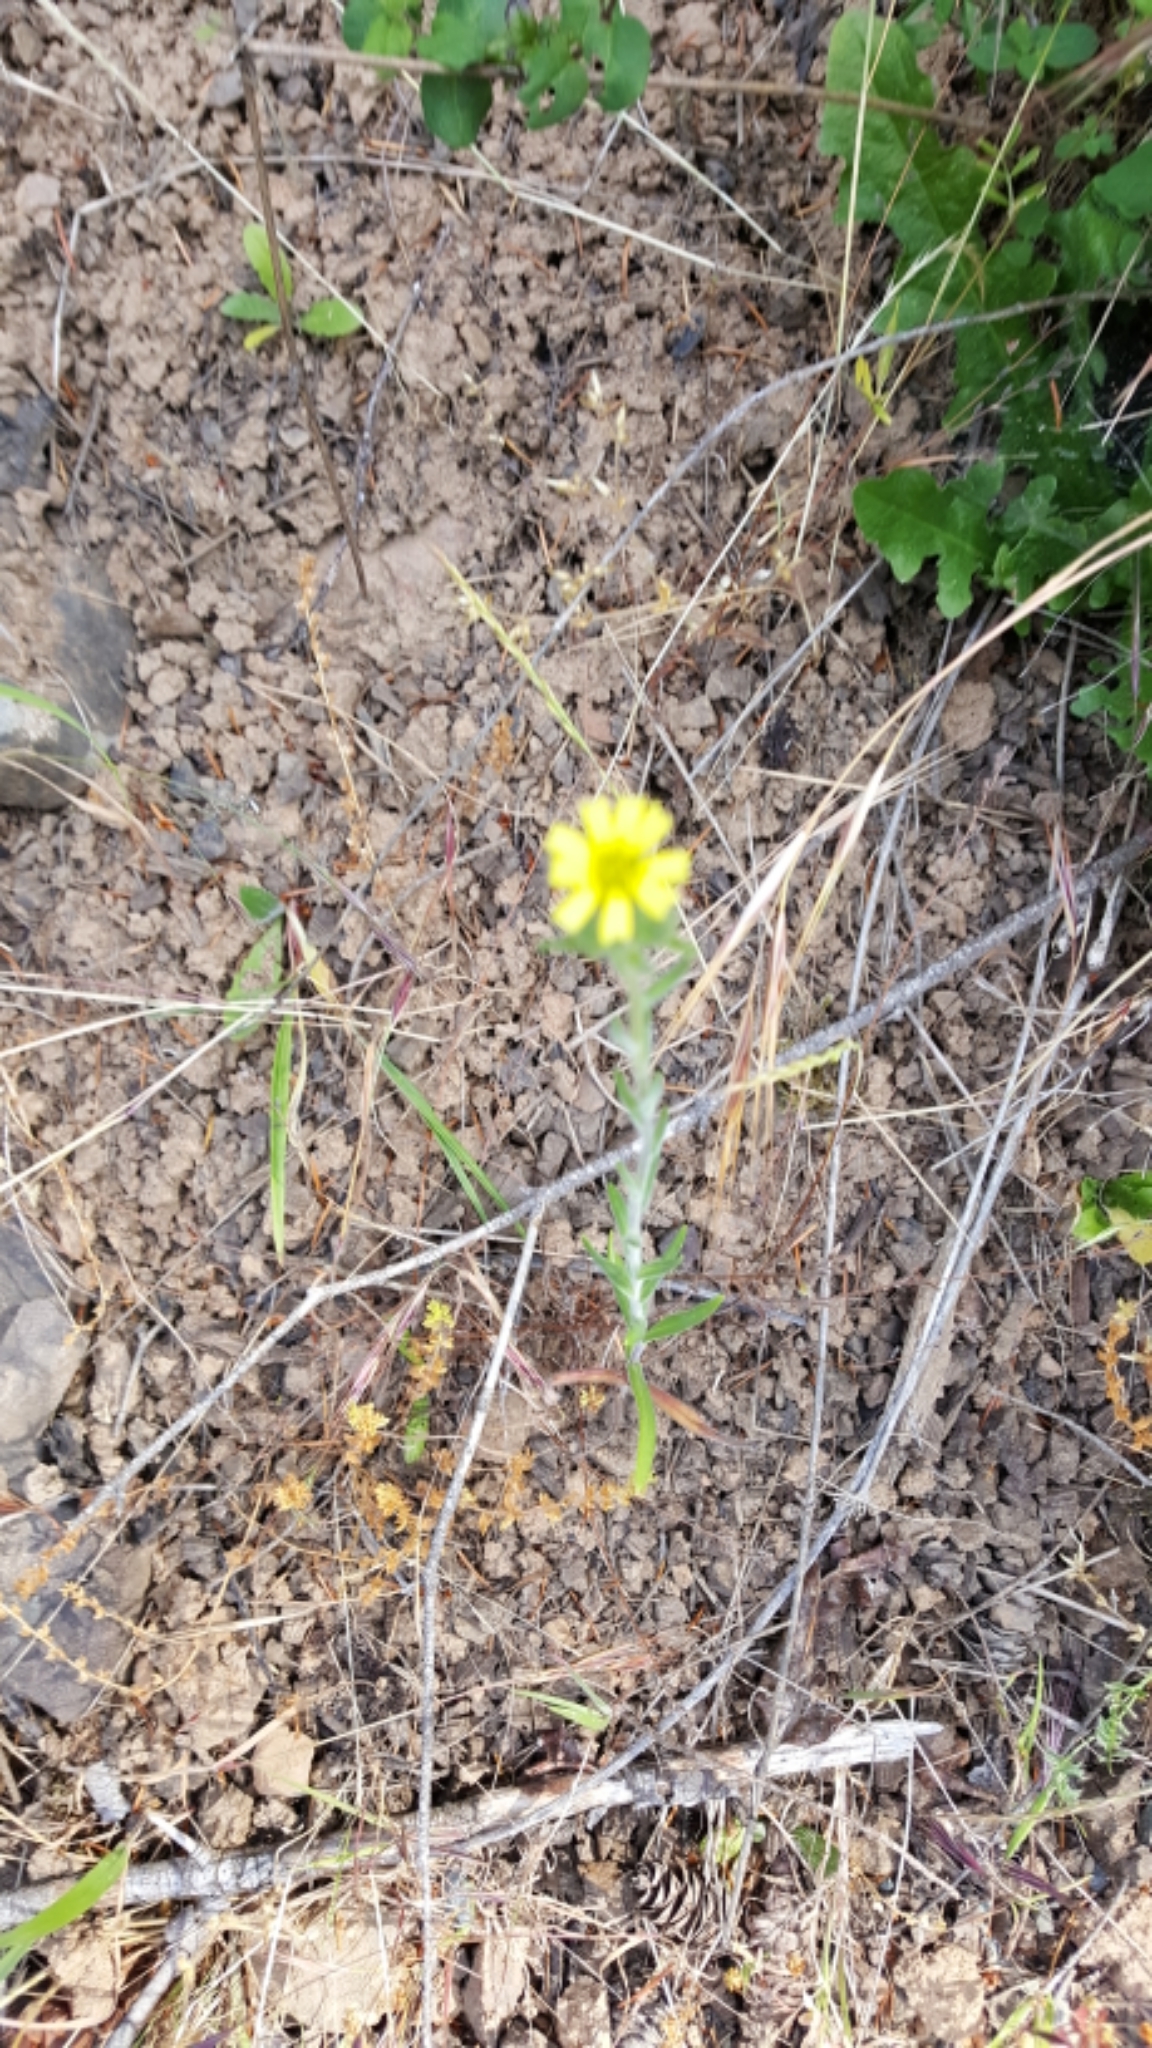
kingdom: Plantae
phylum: Tracheophyta
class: Magnoliopsida
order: Asterales
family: Asteraceae
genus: Madia
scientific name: Madia gracilis
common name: Grassy tarweed
